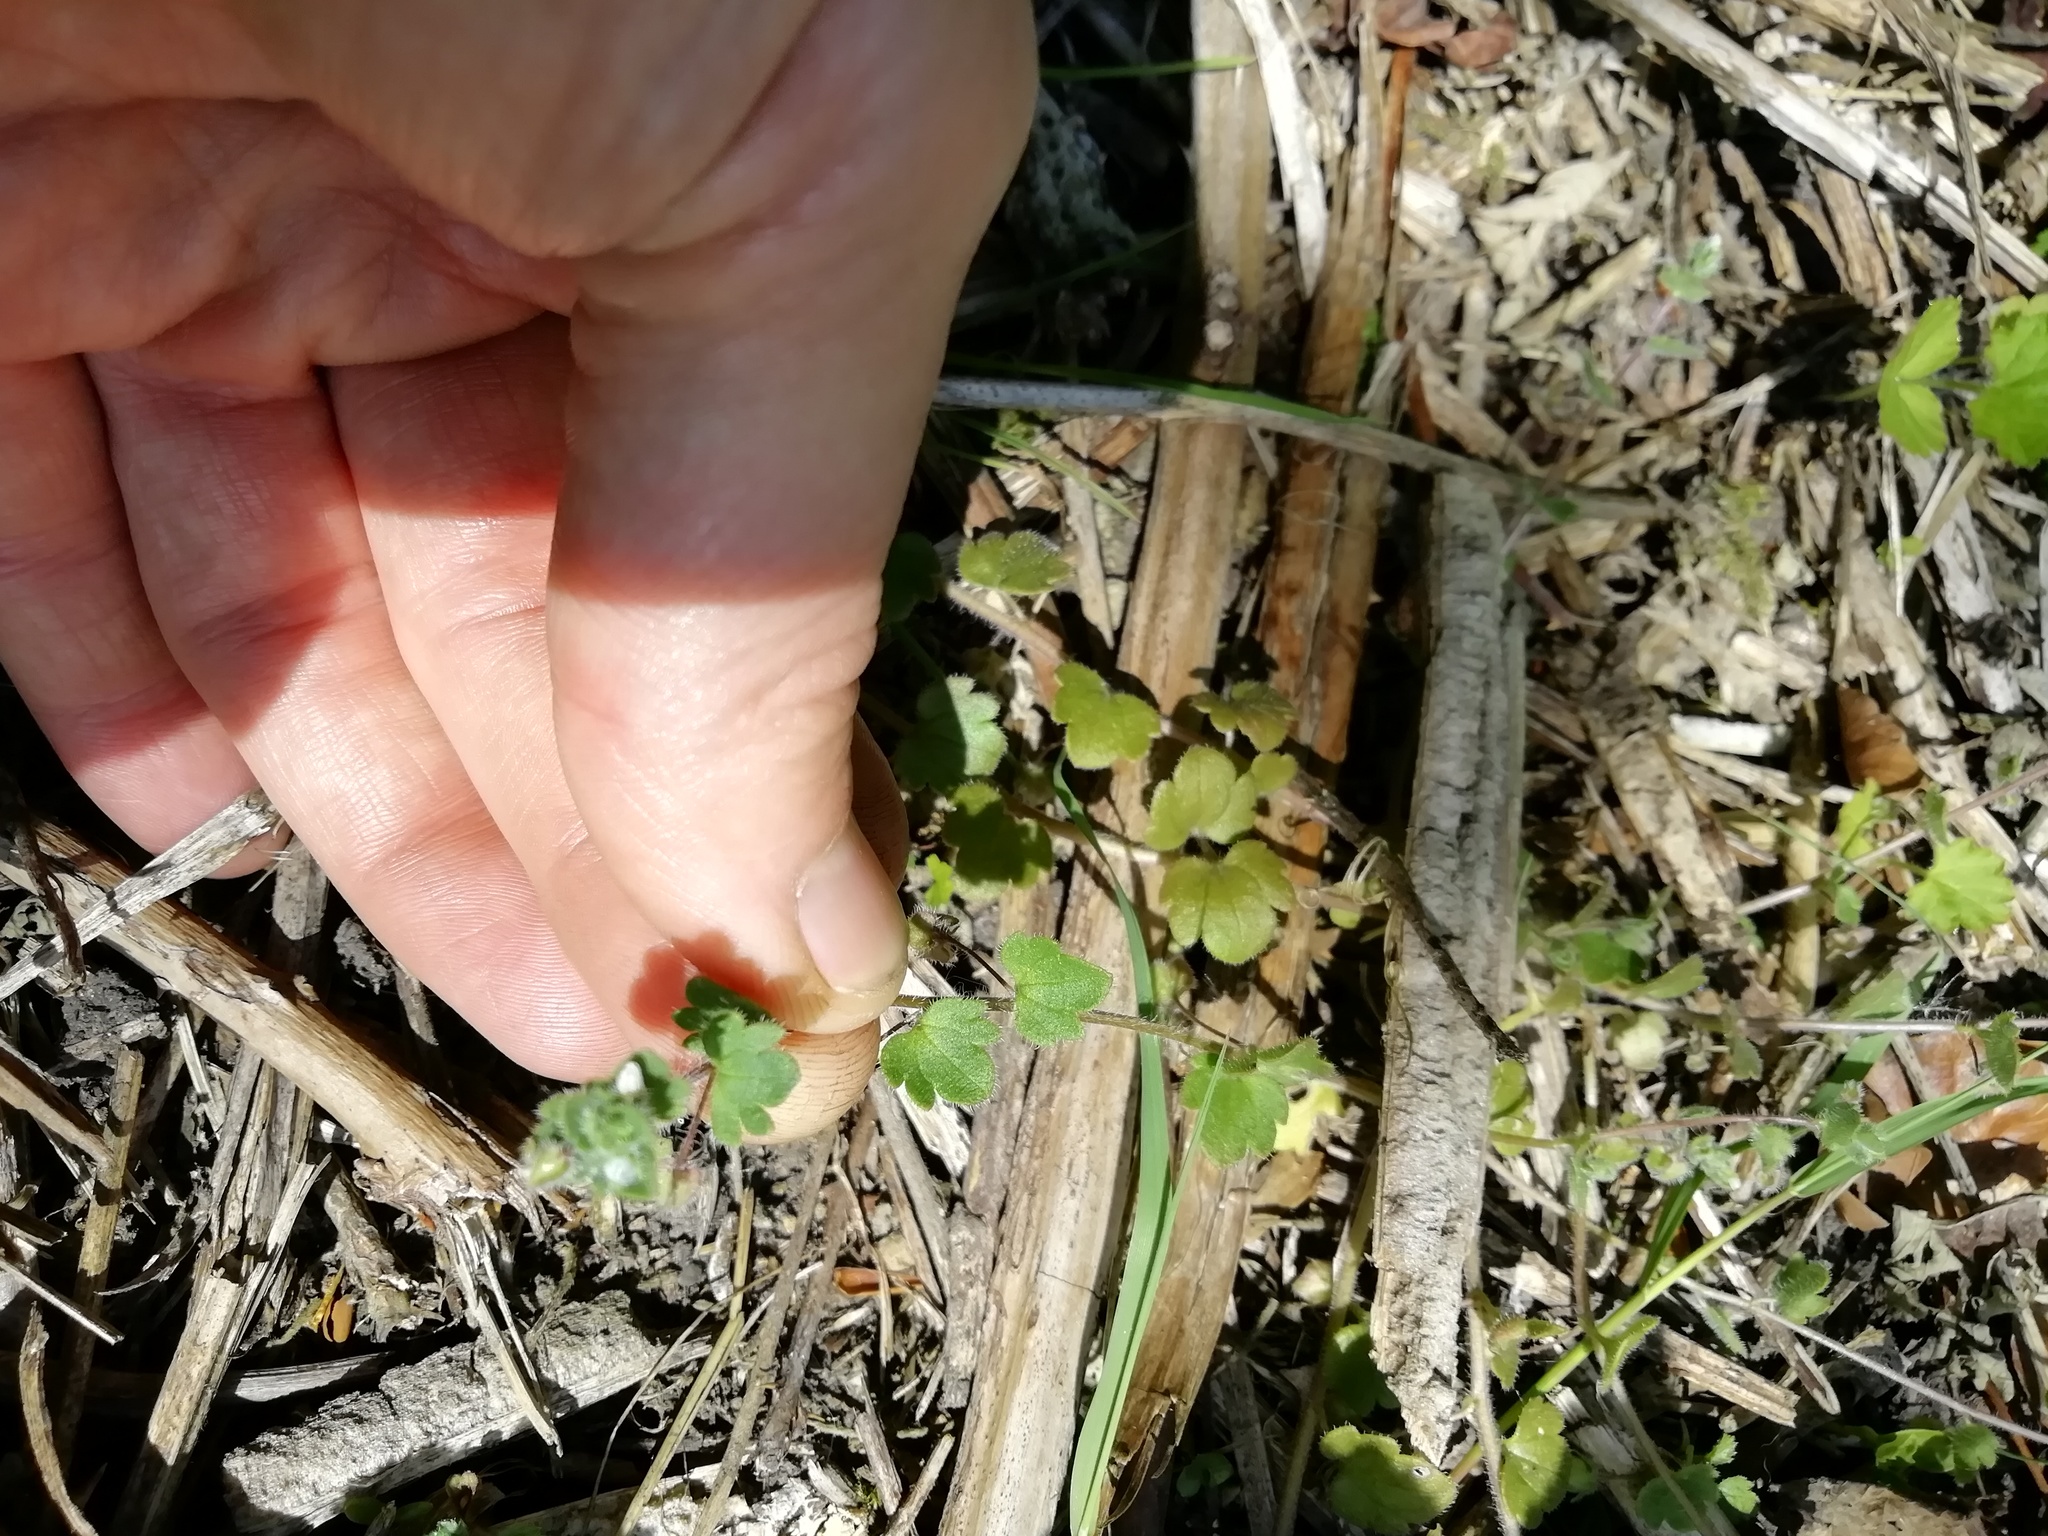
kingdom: Plantae
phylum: Tracheophyta
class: Magnoliopsida
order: Lamiales
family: Plantaginaceae
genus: Veronica
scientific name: Veronica hederifolia
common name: Ivy-leaved speedwell
